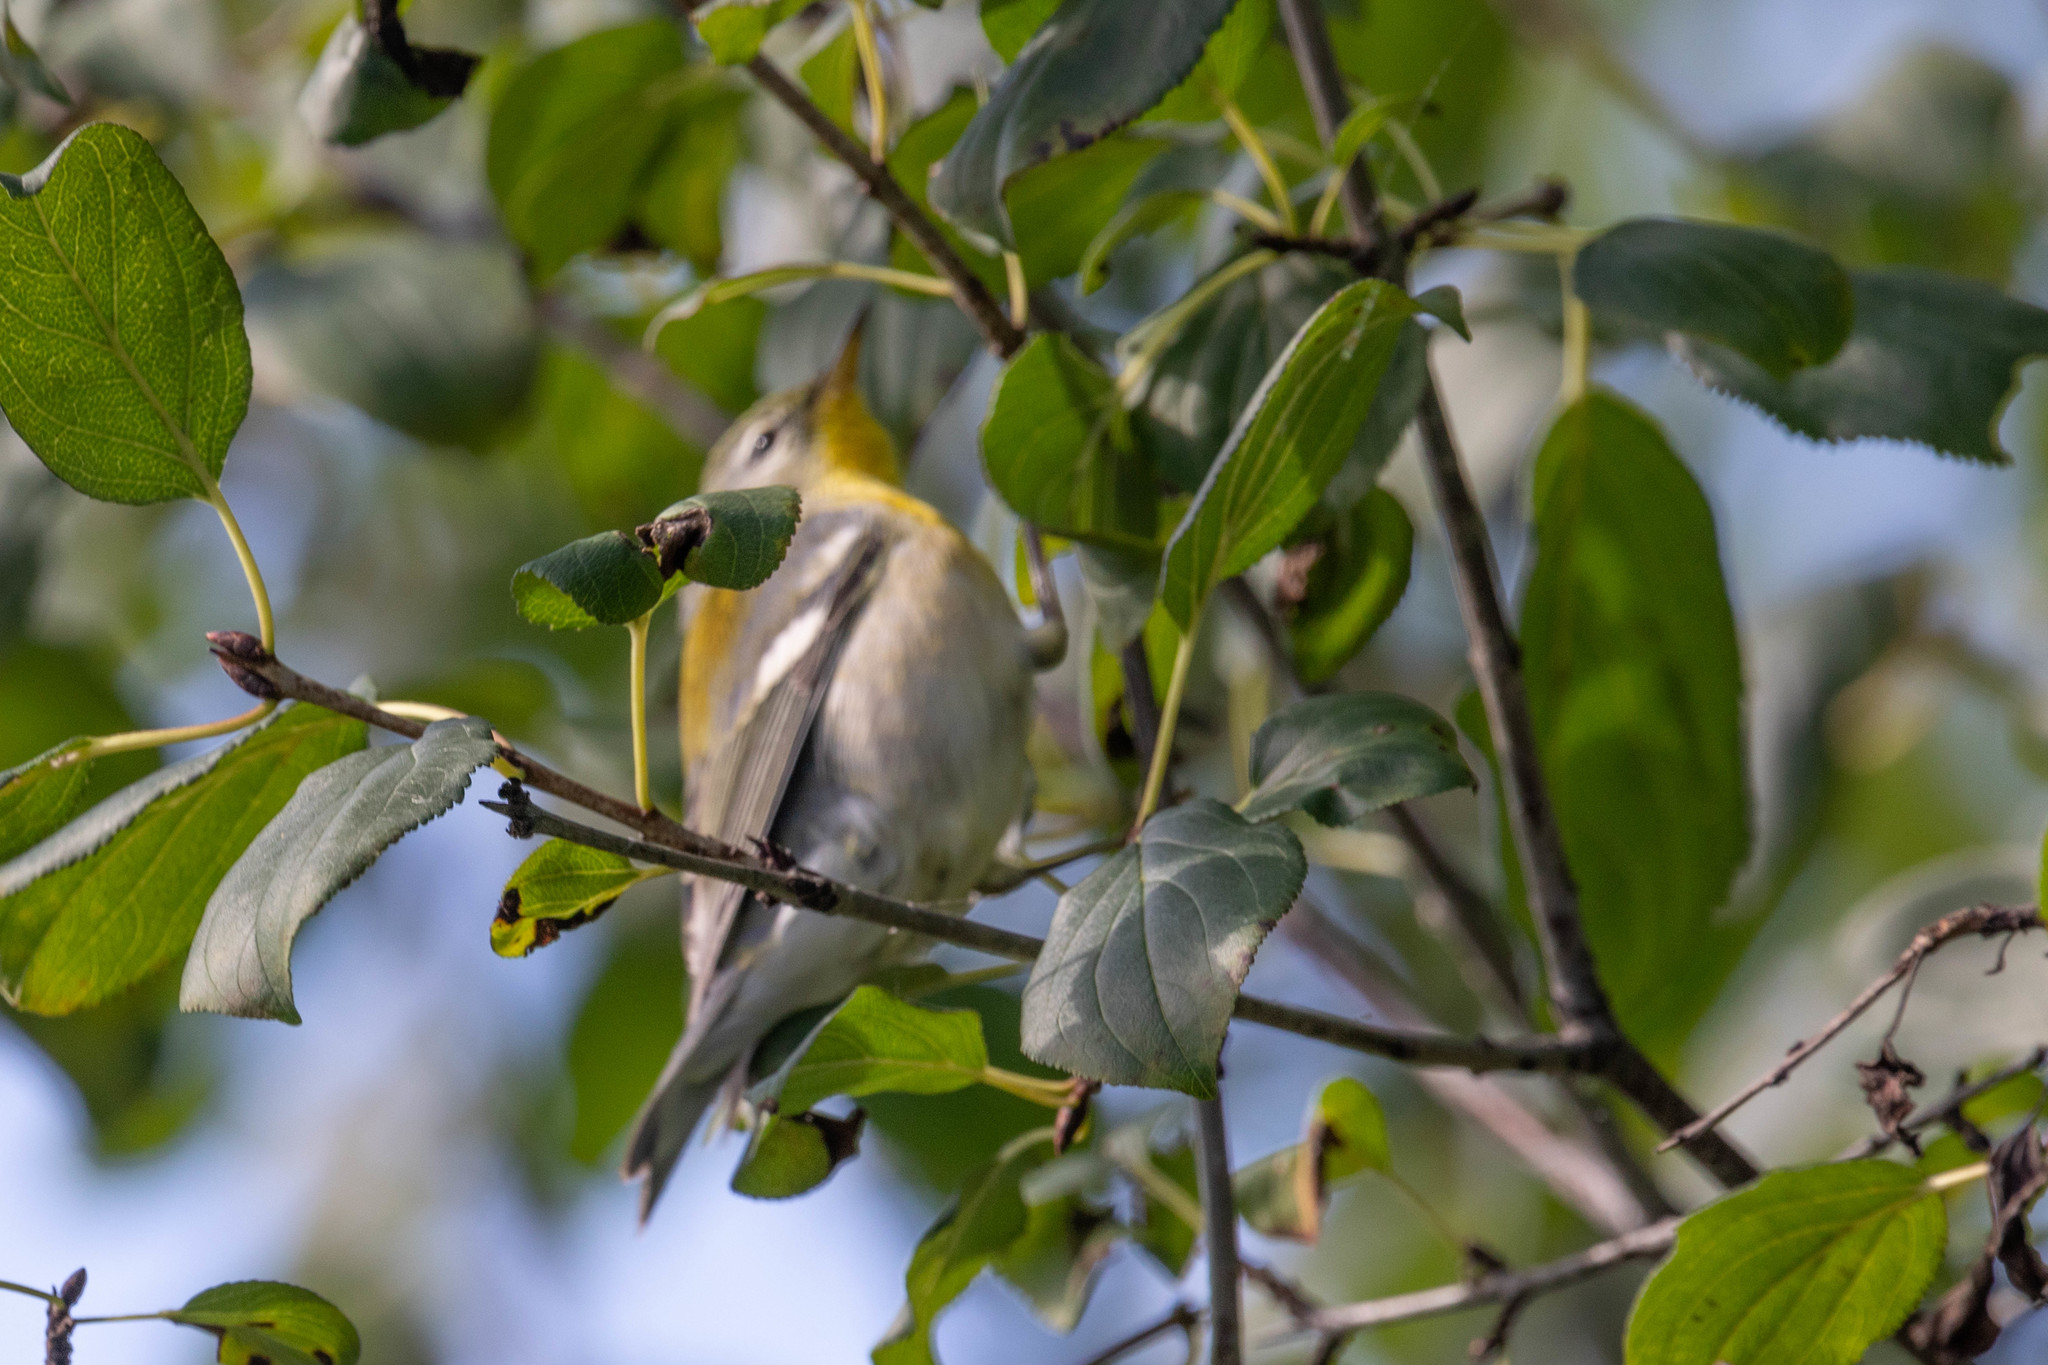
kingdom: Animalia
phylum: Chordata
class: Aves
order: Passeriformes
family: Parulidae
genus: Setophaga
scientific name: Setophaga americana
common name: Northern parula
